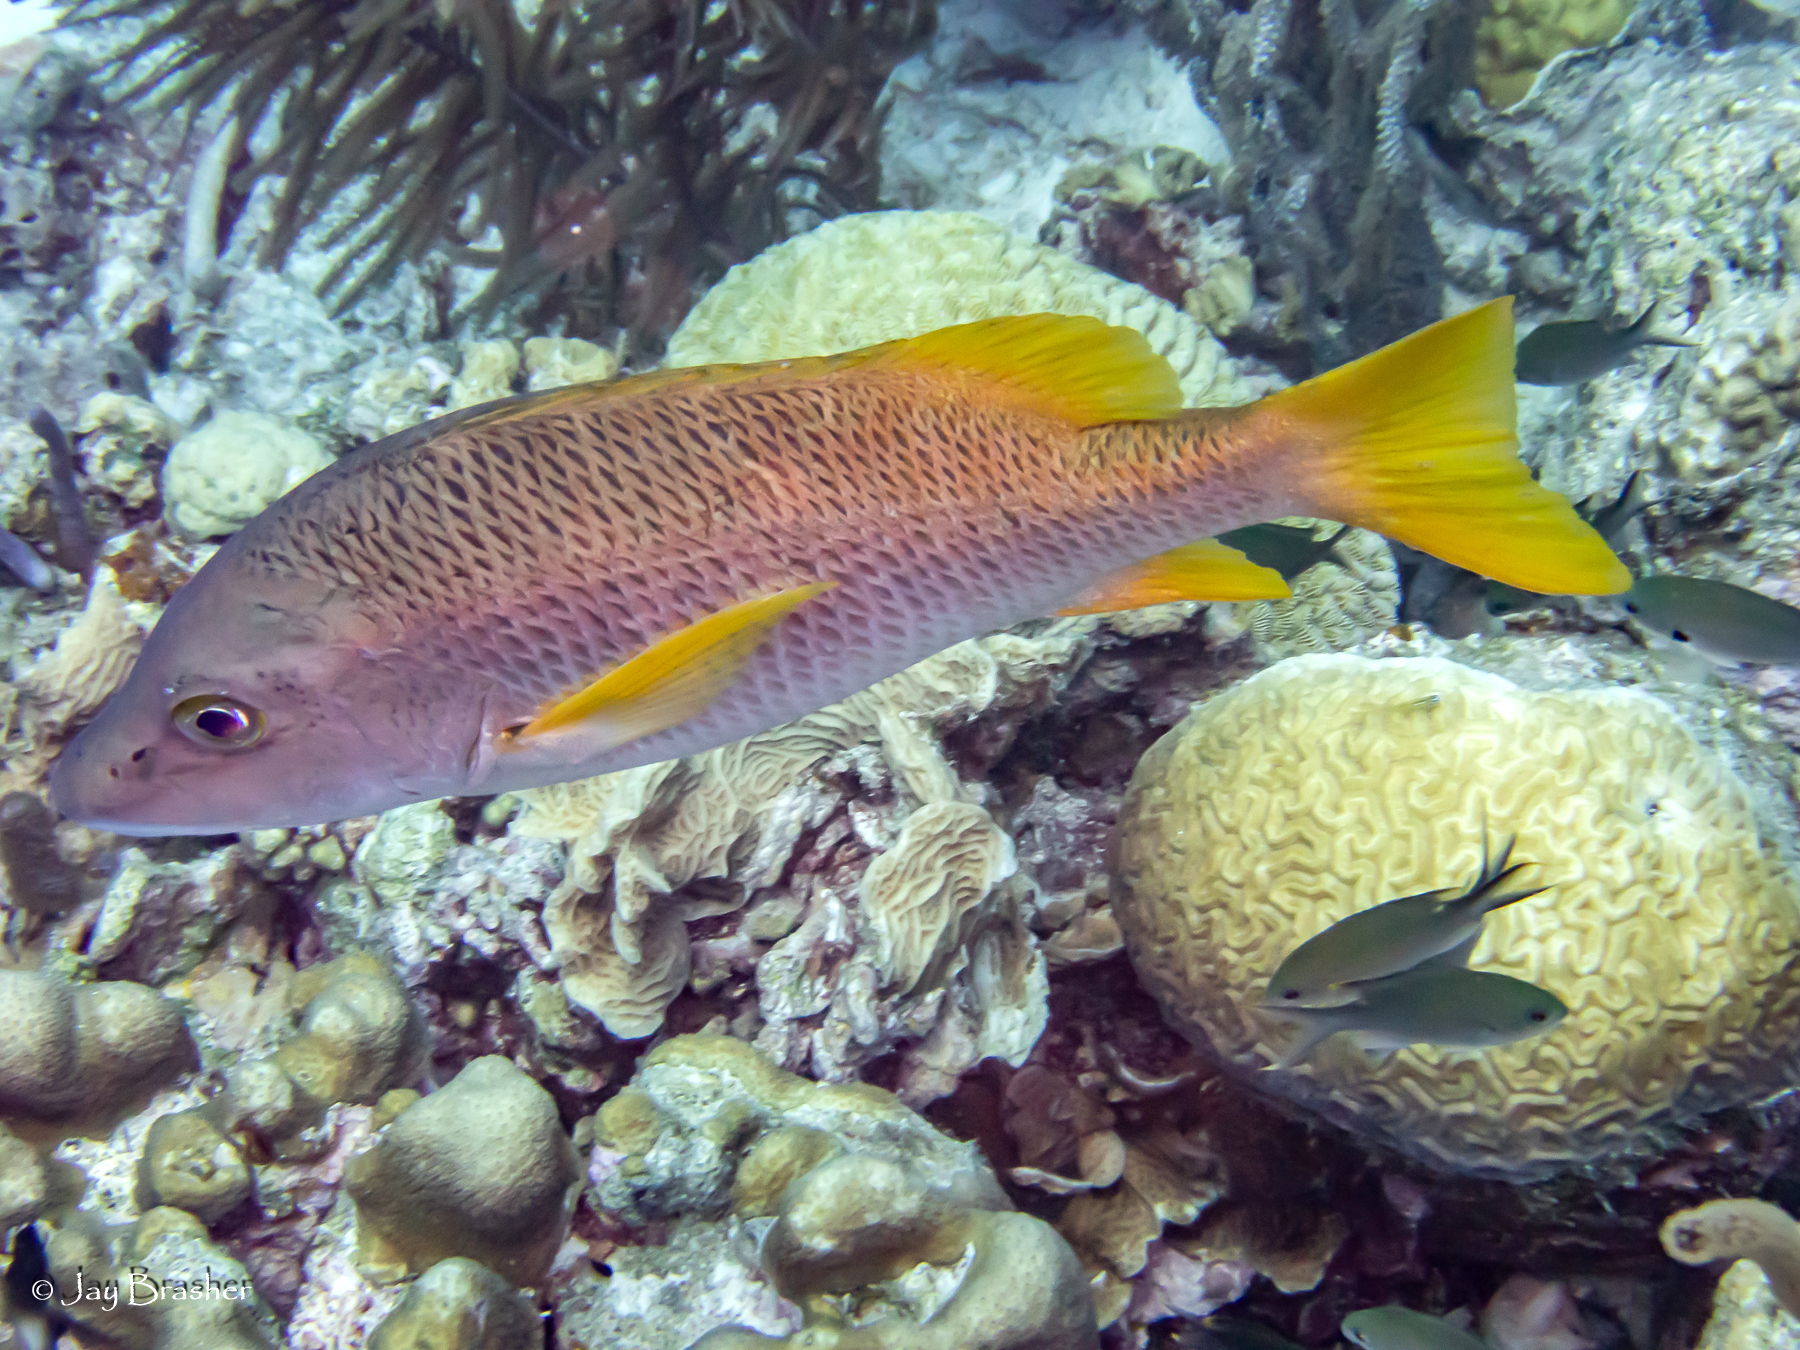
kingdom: Animalia
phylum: Chordata
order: Perciformes
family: Pomacentridae
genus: Chromis
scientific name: Chromis multilineata
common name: Brown chromis
